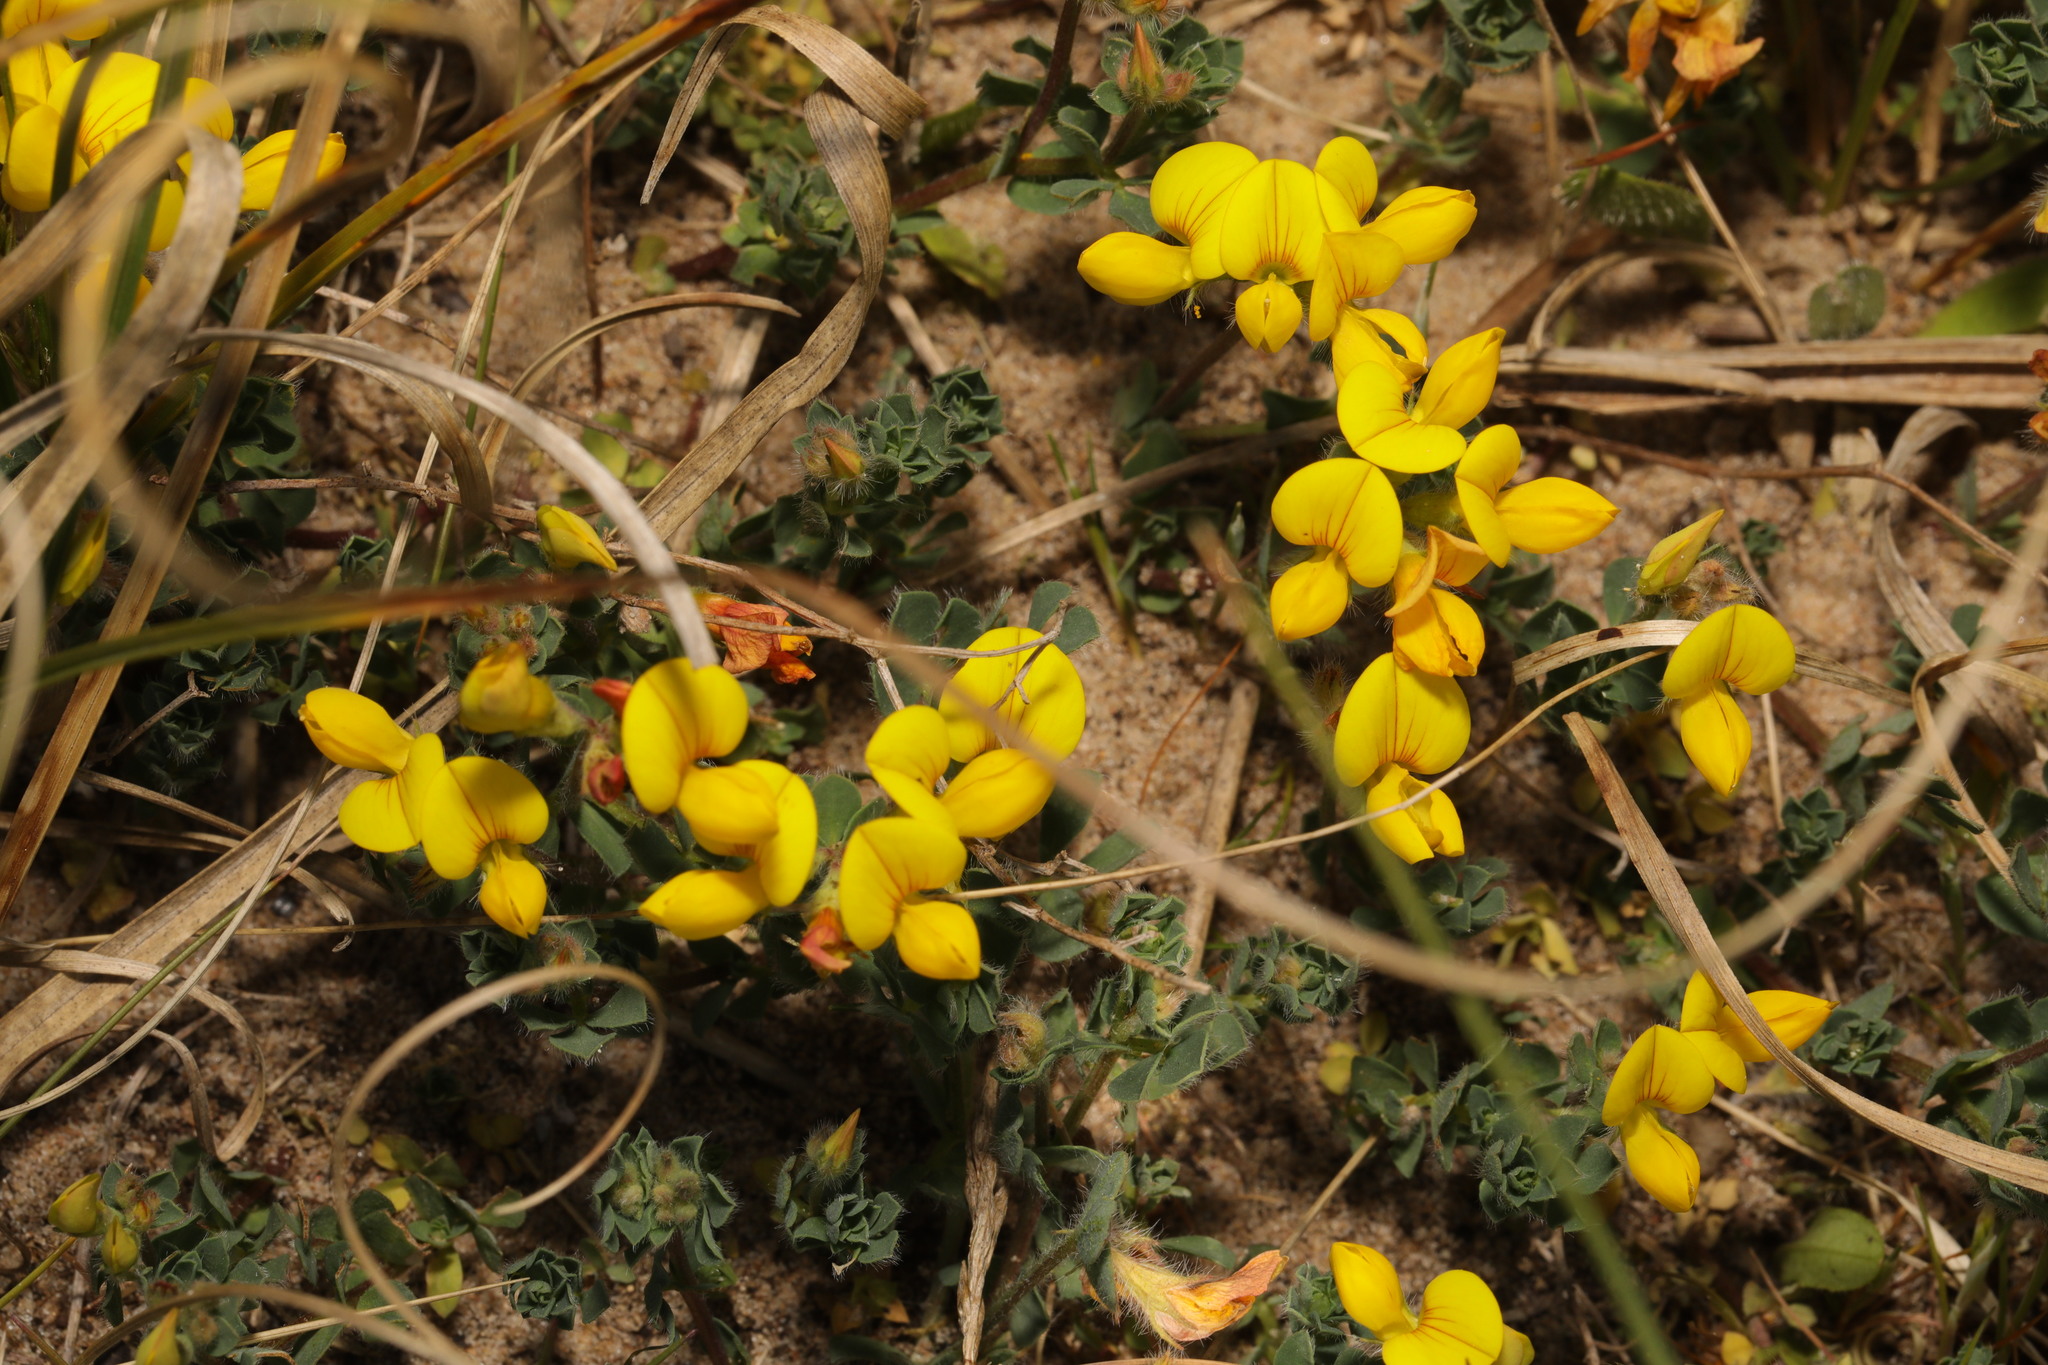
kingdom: Plantae
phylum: Tracheophyta
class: Magnoliopsida
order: Fabales
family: Fabaceae
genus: Lotus
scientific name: Lotus corniculatus
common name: Common bird's-foot-trefoil
